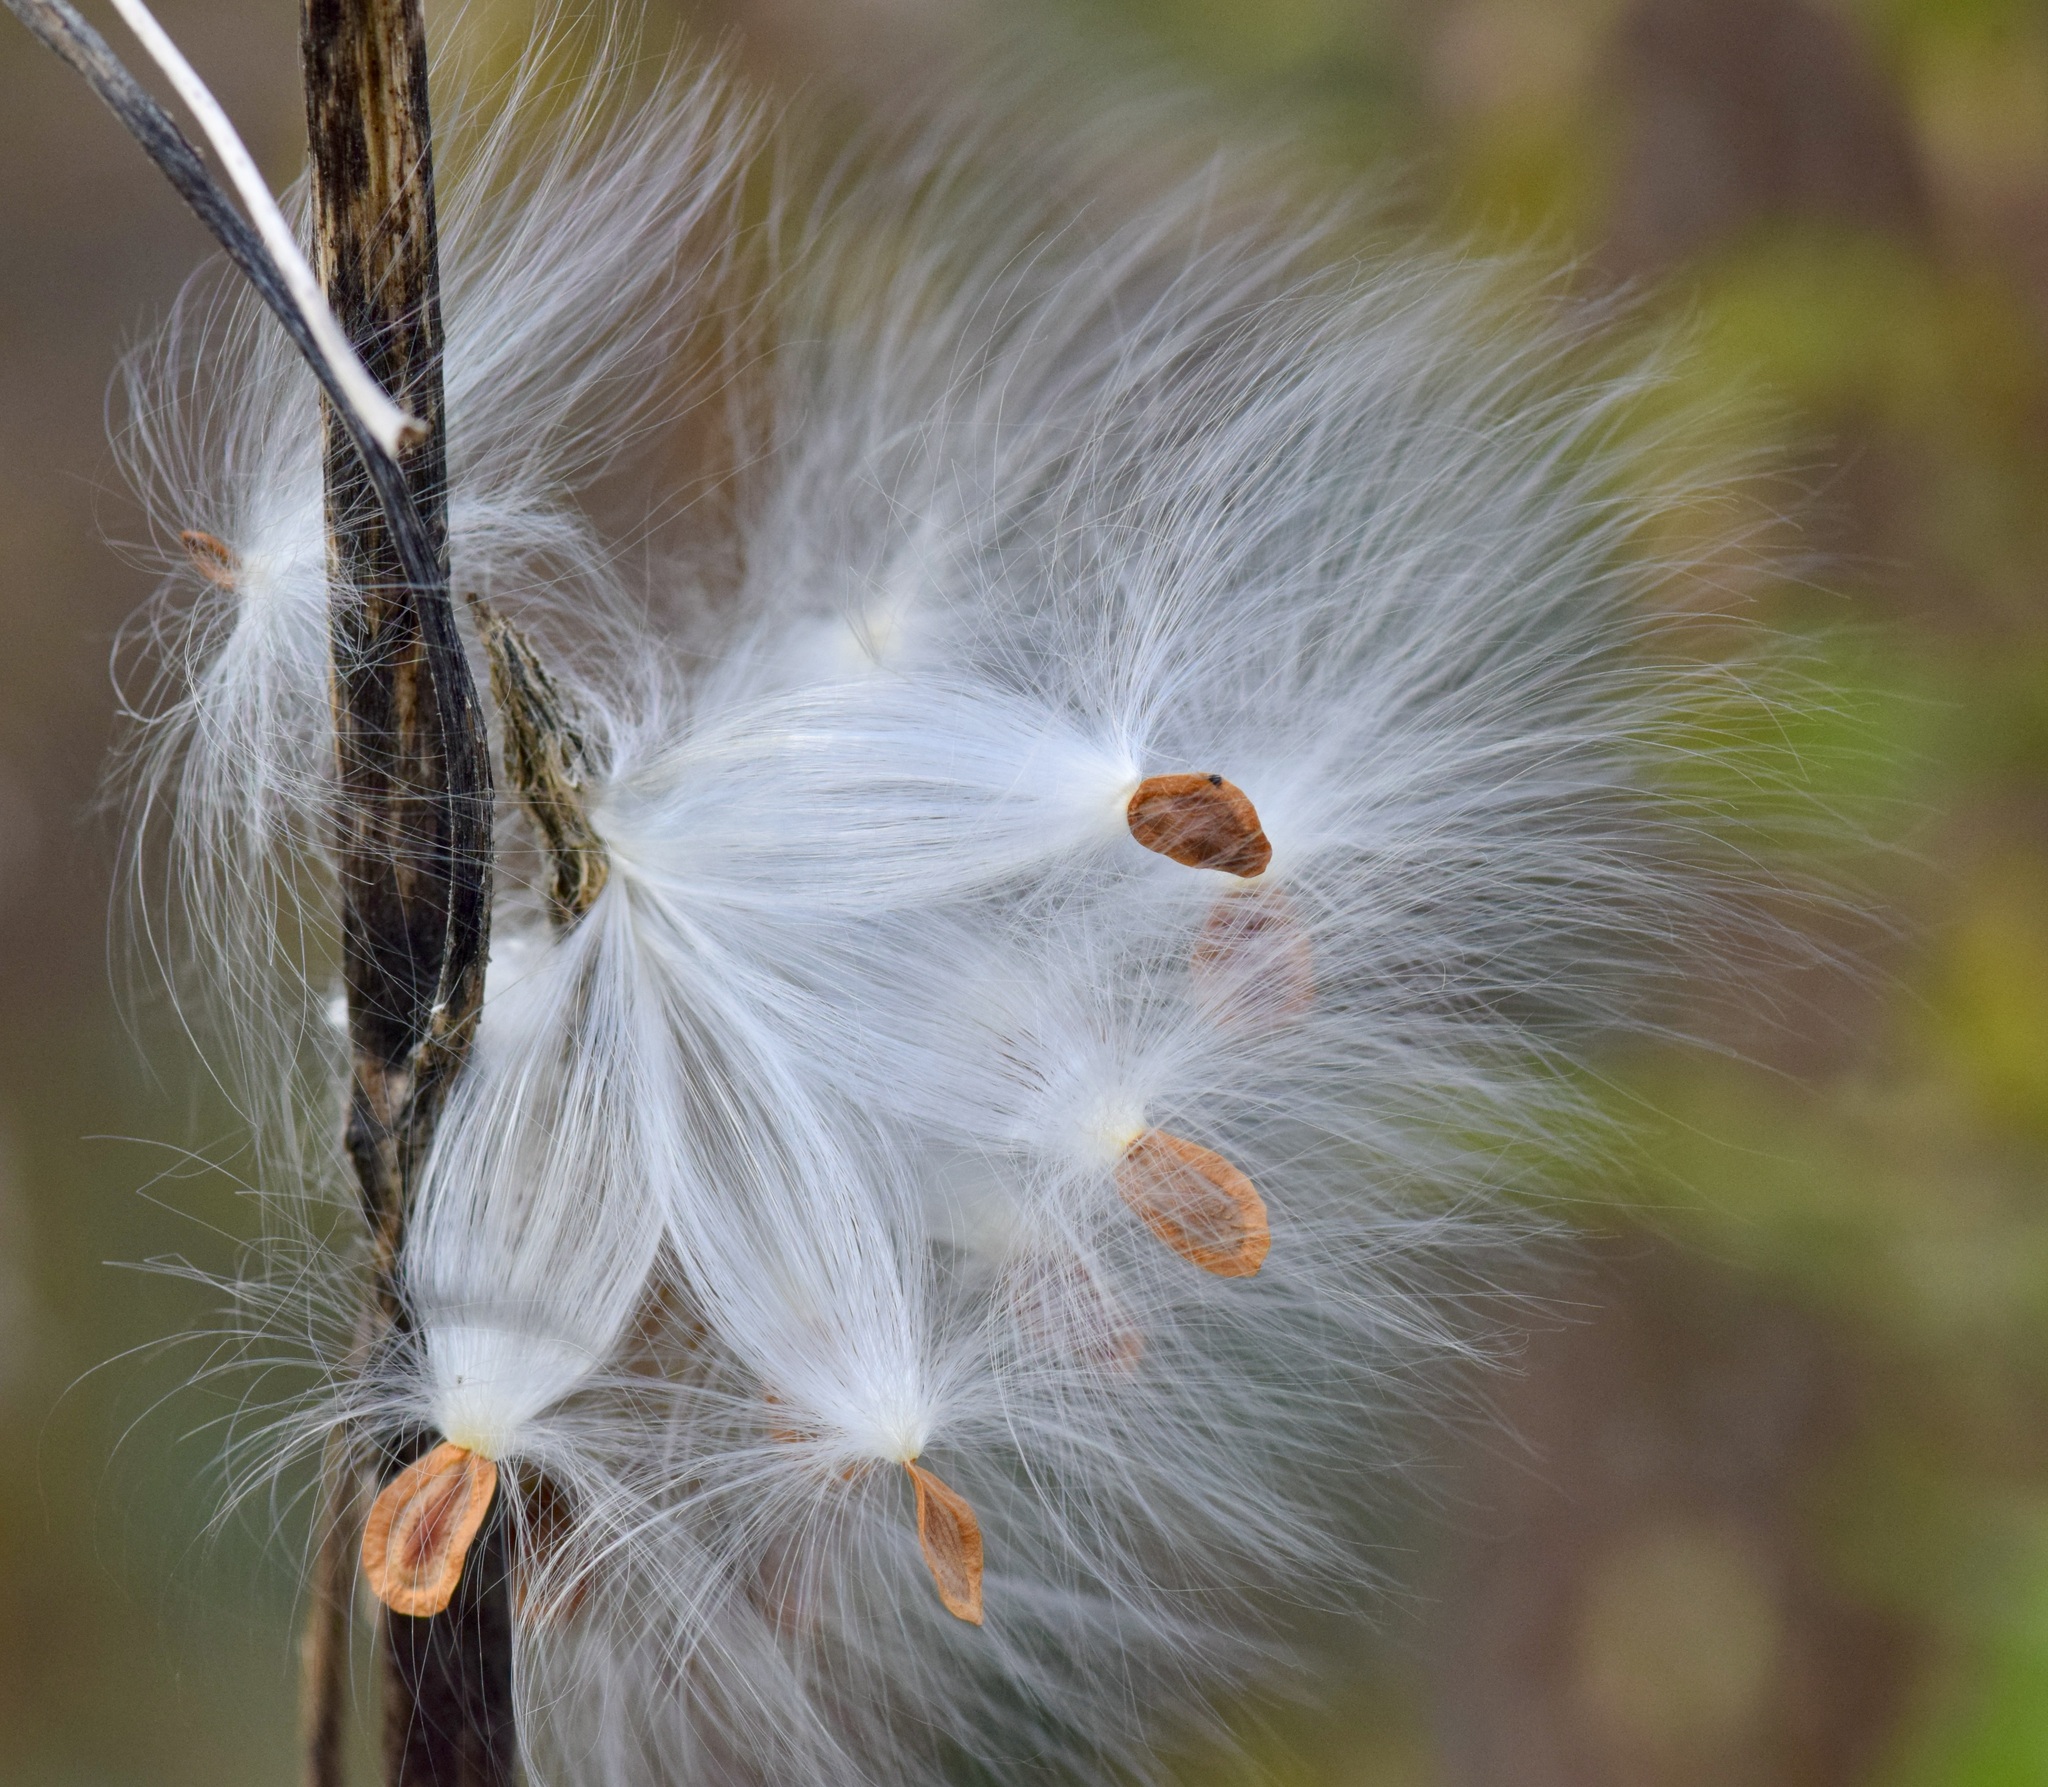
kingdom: Plantae
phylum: Tracheophyta
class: Magnoliopsida
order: Gentianales
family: Apocynaceae
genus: Asclepias
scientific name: Asclepias syriaca
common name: Common milkweed
